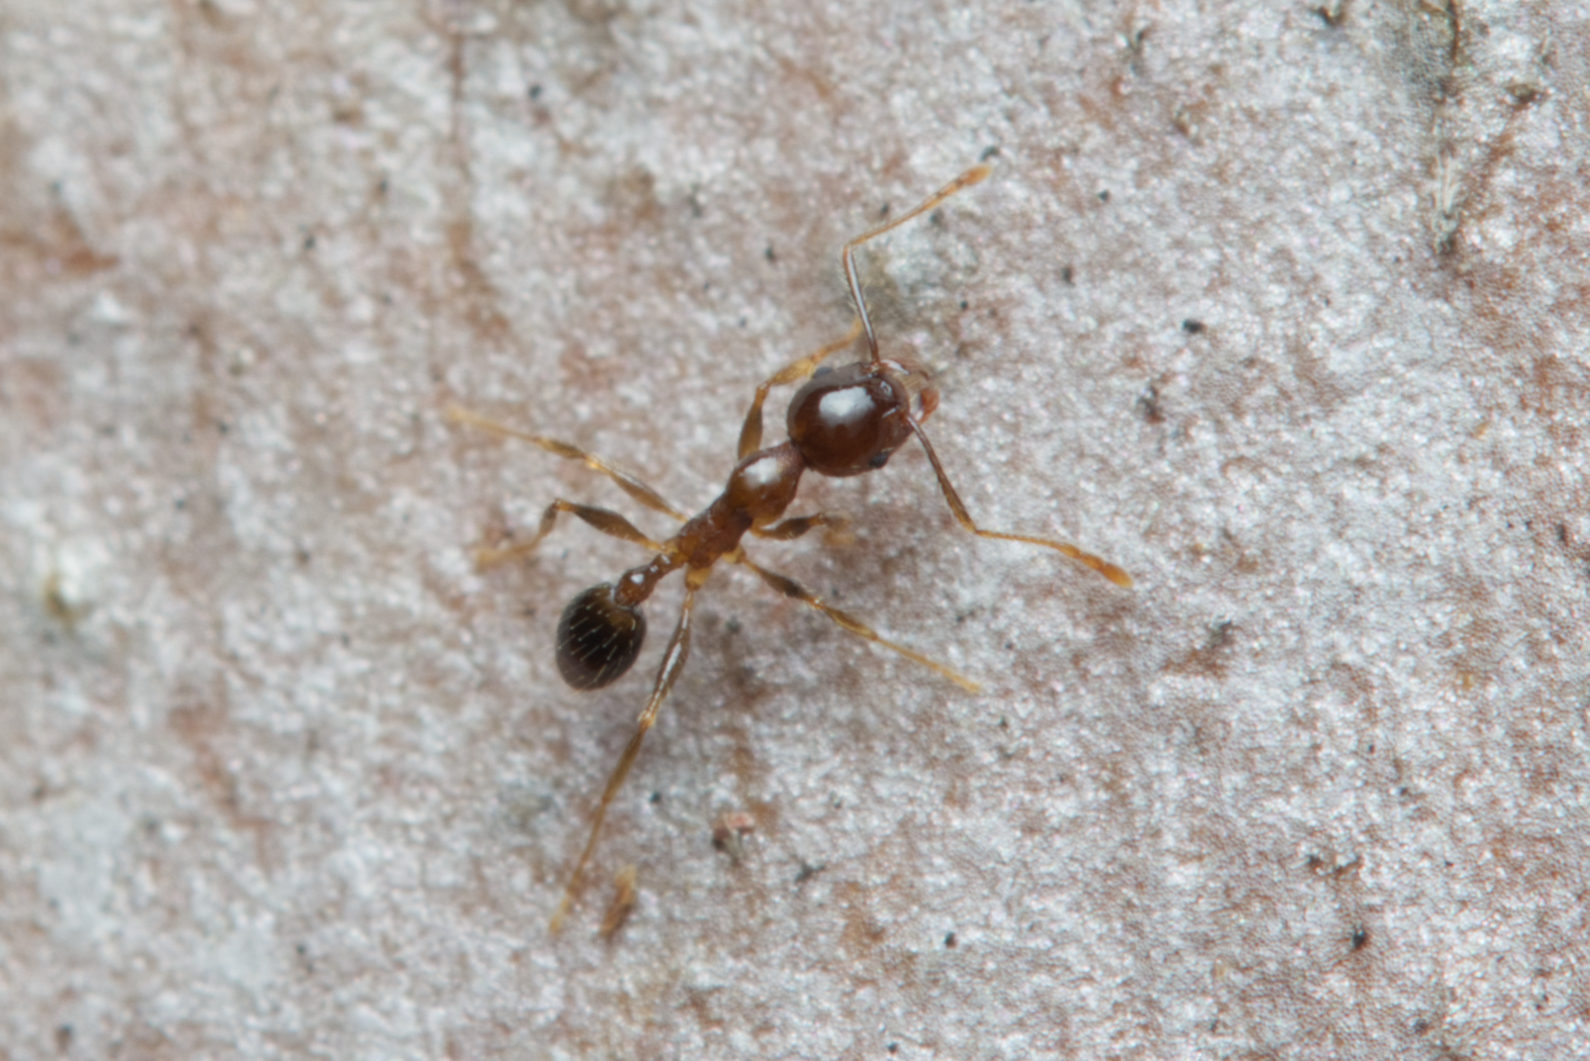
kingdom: Animalia
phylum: Arthropoda
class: Insecta
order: Hymenoptera
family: Formicidae
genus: Pheidole
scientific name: Pheidole megacephala
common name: Bigheaded ant
